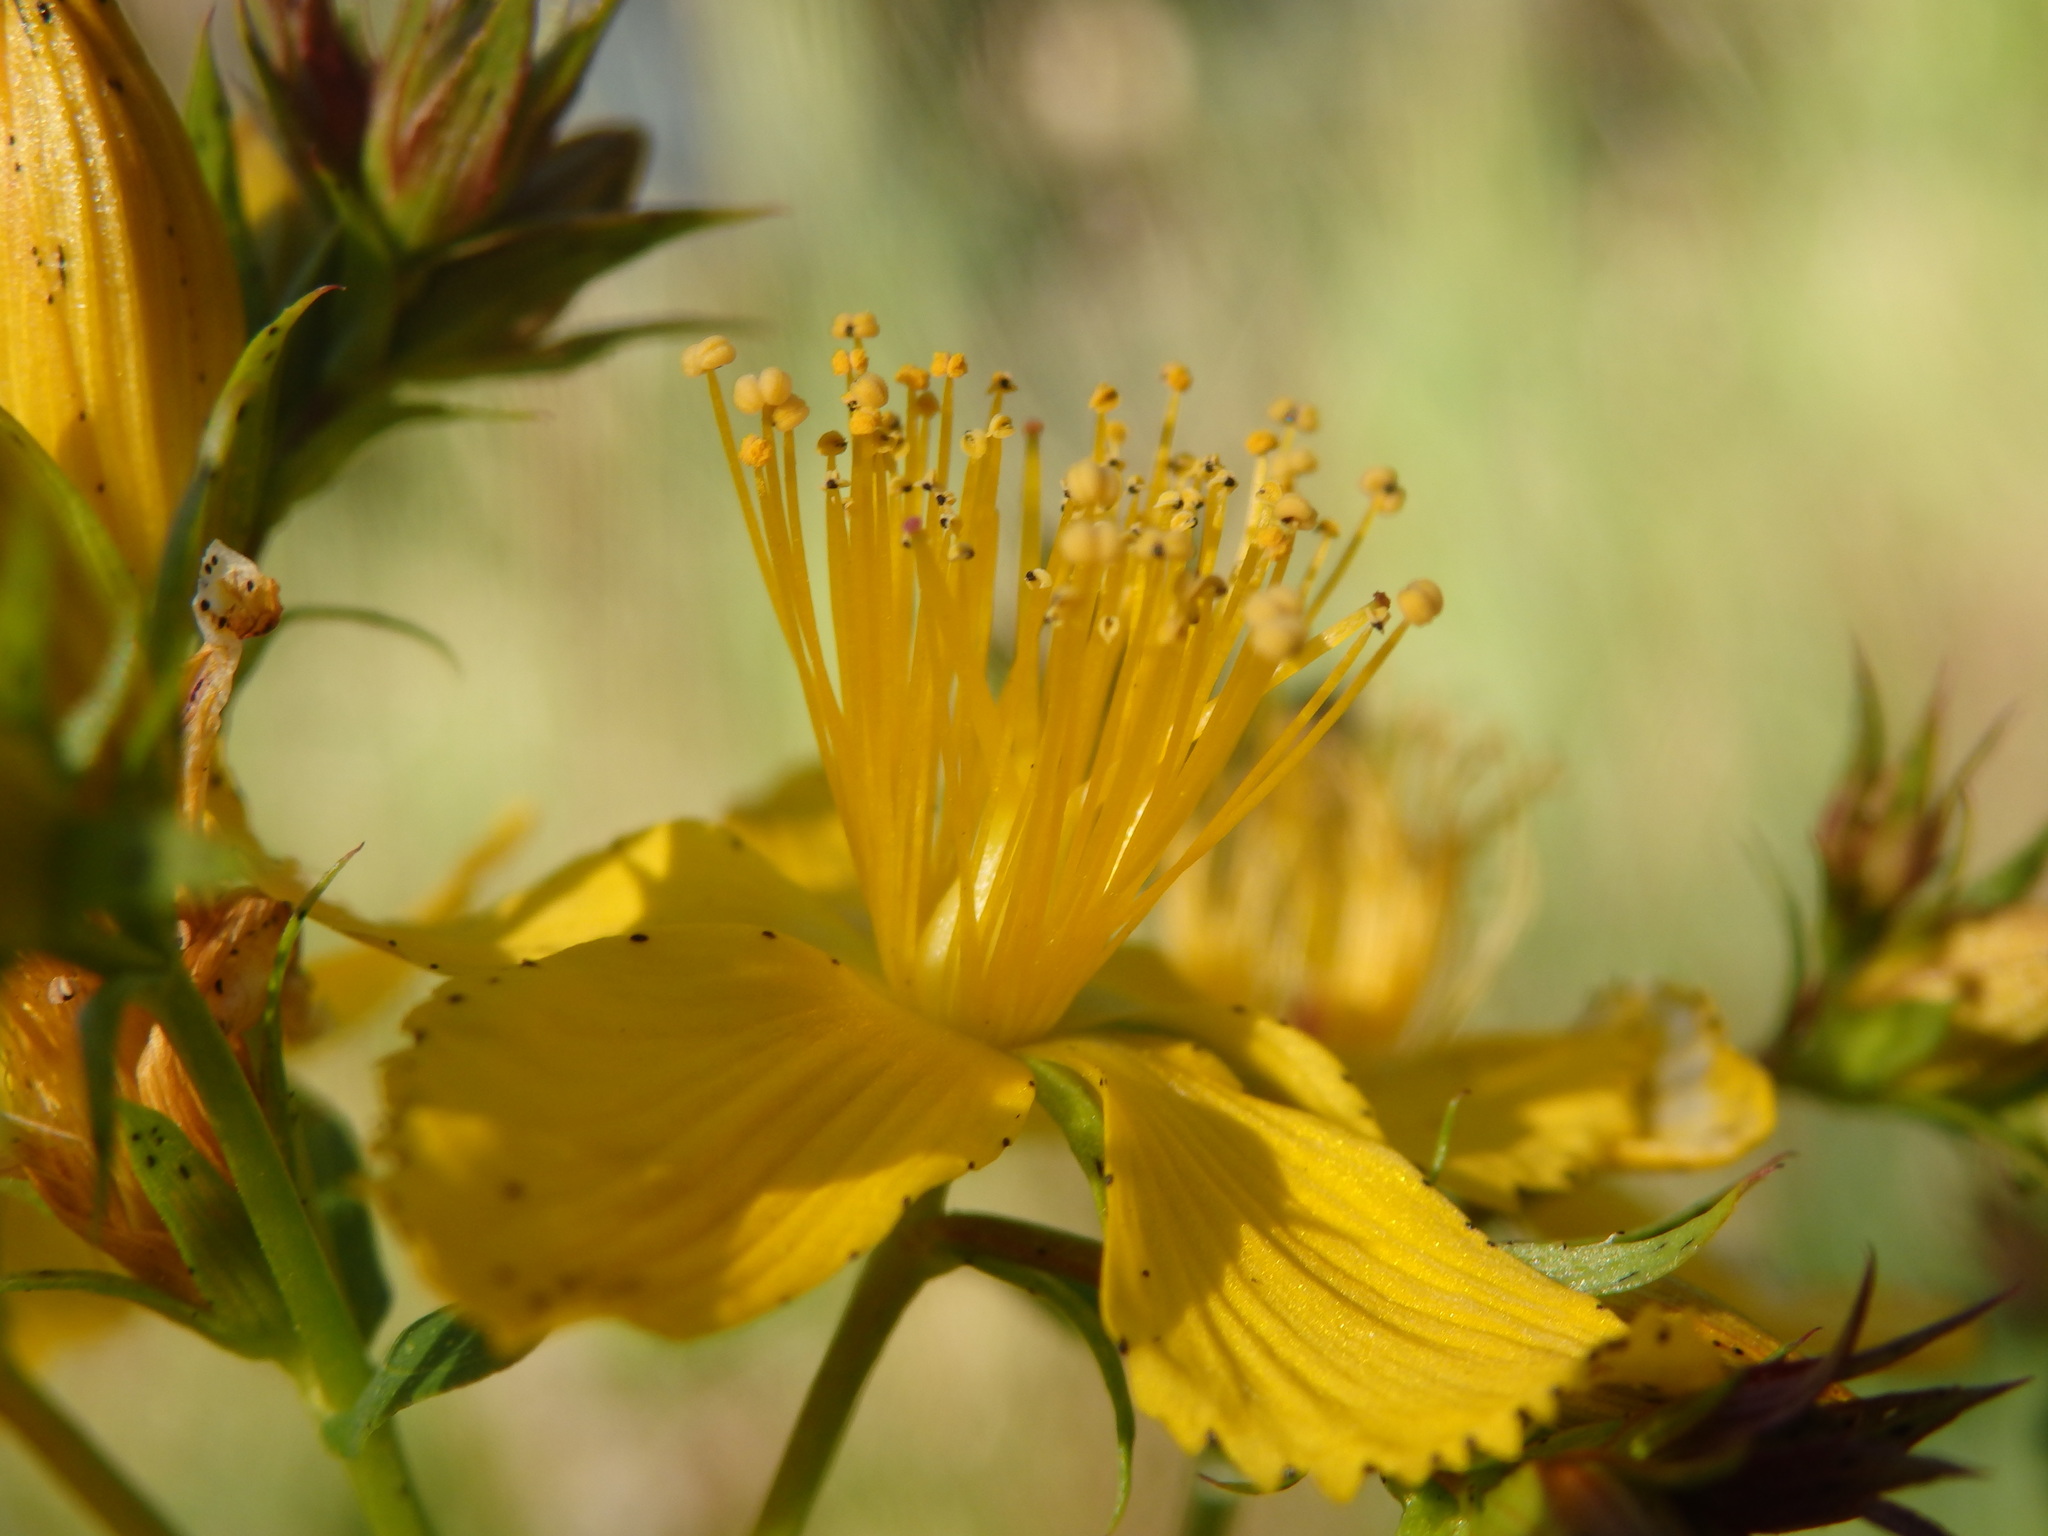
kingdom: Plantae
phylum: Tracheophyta
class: Magnoliopsida
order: Malpighiales
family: Hypericaceae
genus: Hypericum
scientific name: Hypericum perforatum
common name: Common st. johnswort
